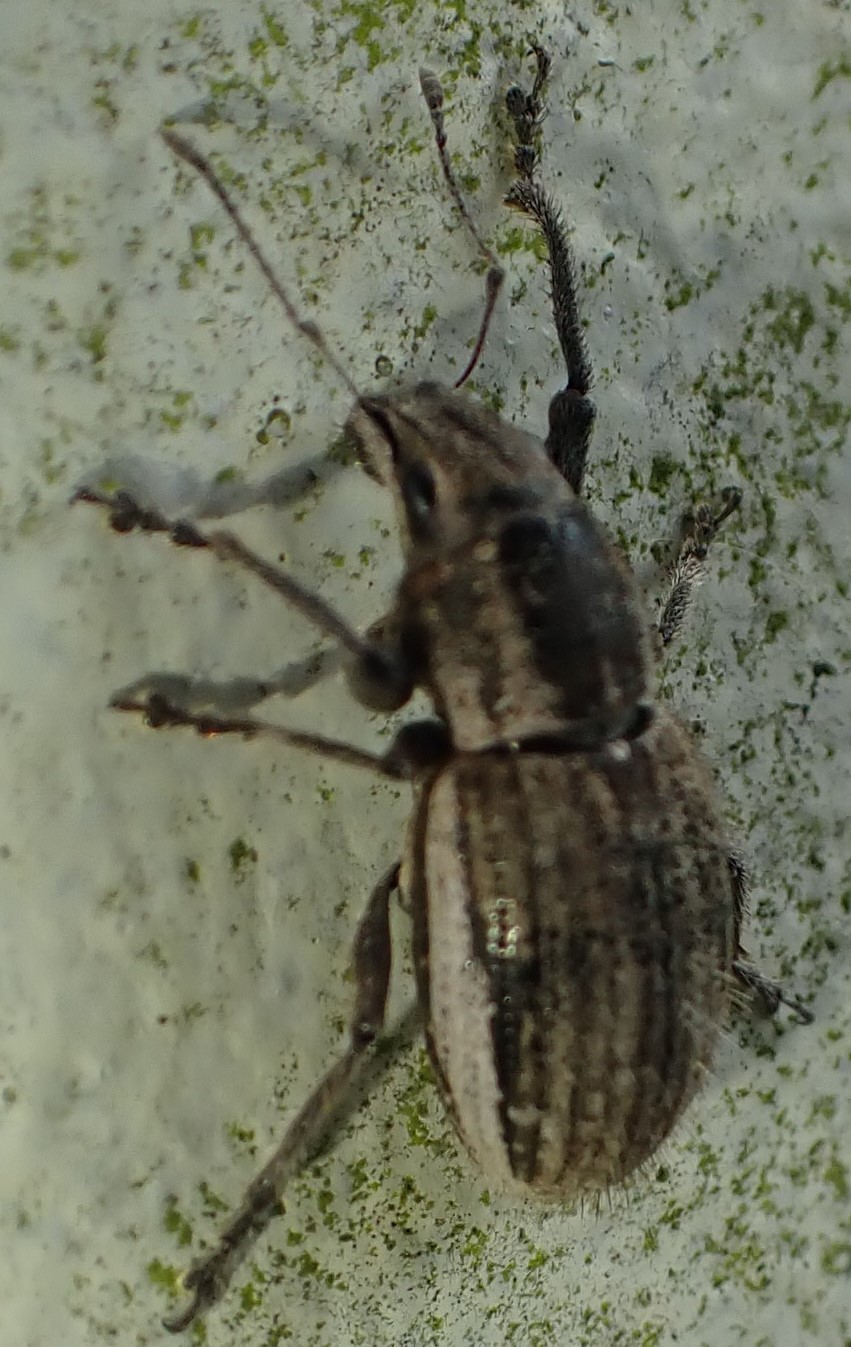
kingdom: Animalia
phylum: Arthropoda
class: Insecta
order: Coleoptera
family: Curculionidae
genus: Naupactus
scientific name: Naupactus leucoloma
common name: Whitefringed beetle
